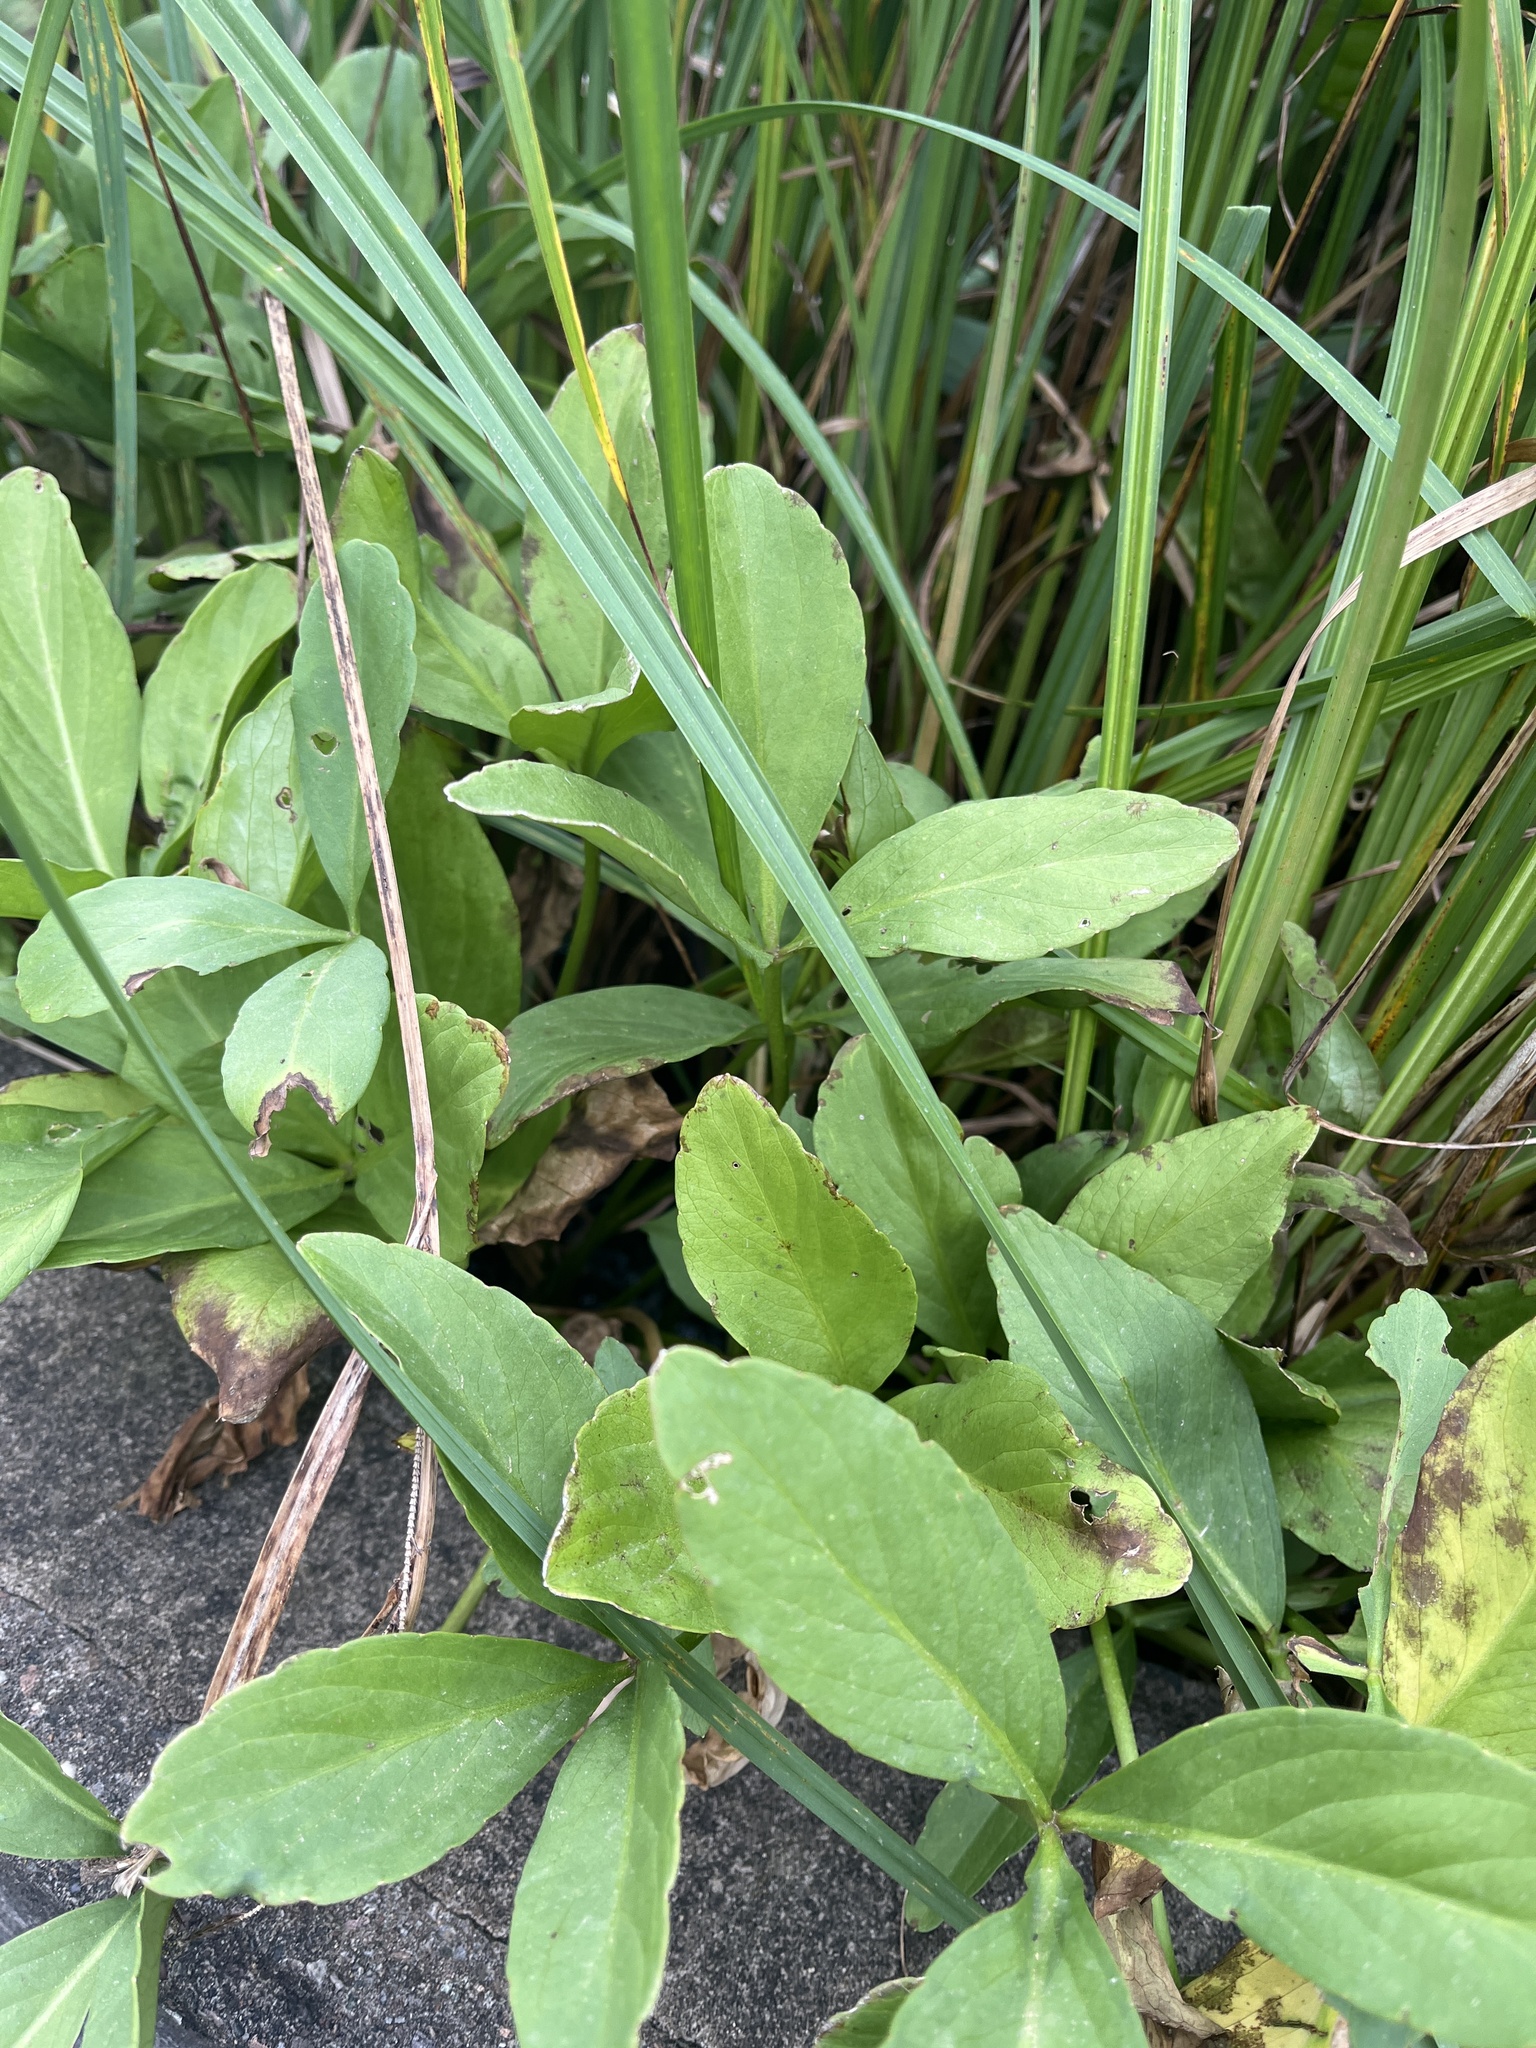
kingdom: Plantae
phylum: Tracheophyta
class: Magnoliopsida
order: Asterales
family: Menyanthaceae
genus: Menyanthes
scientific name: Menyanthes trifoliata
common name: Bogbean
